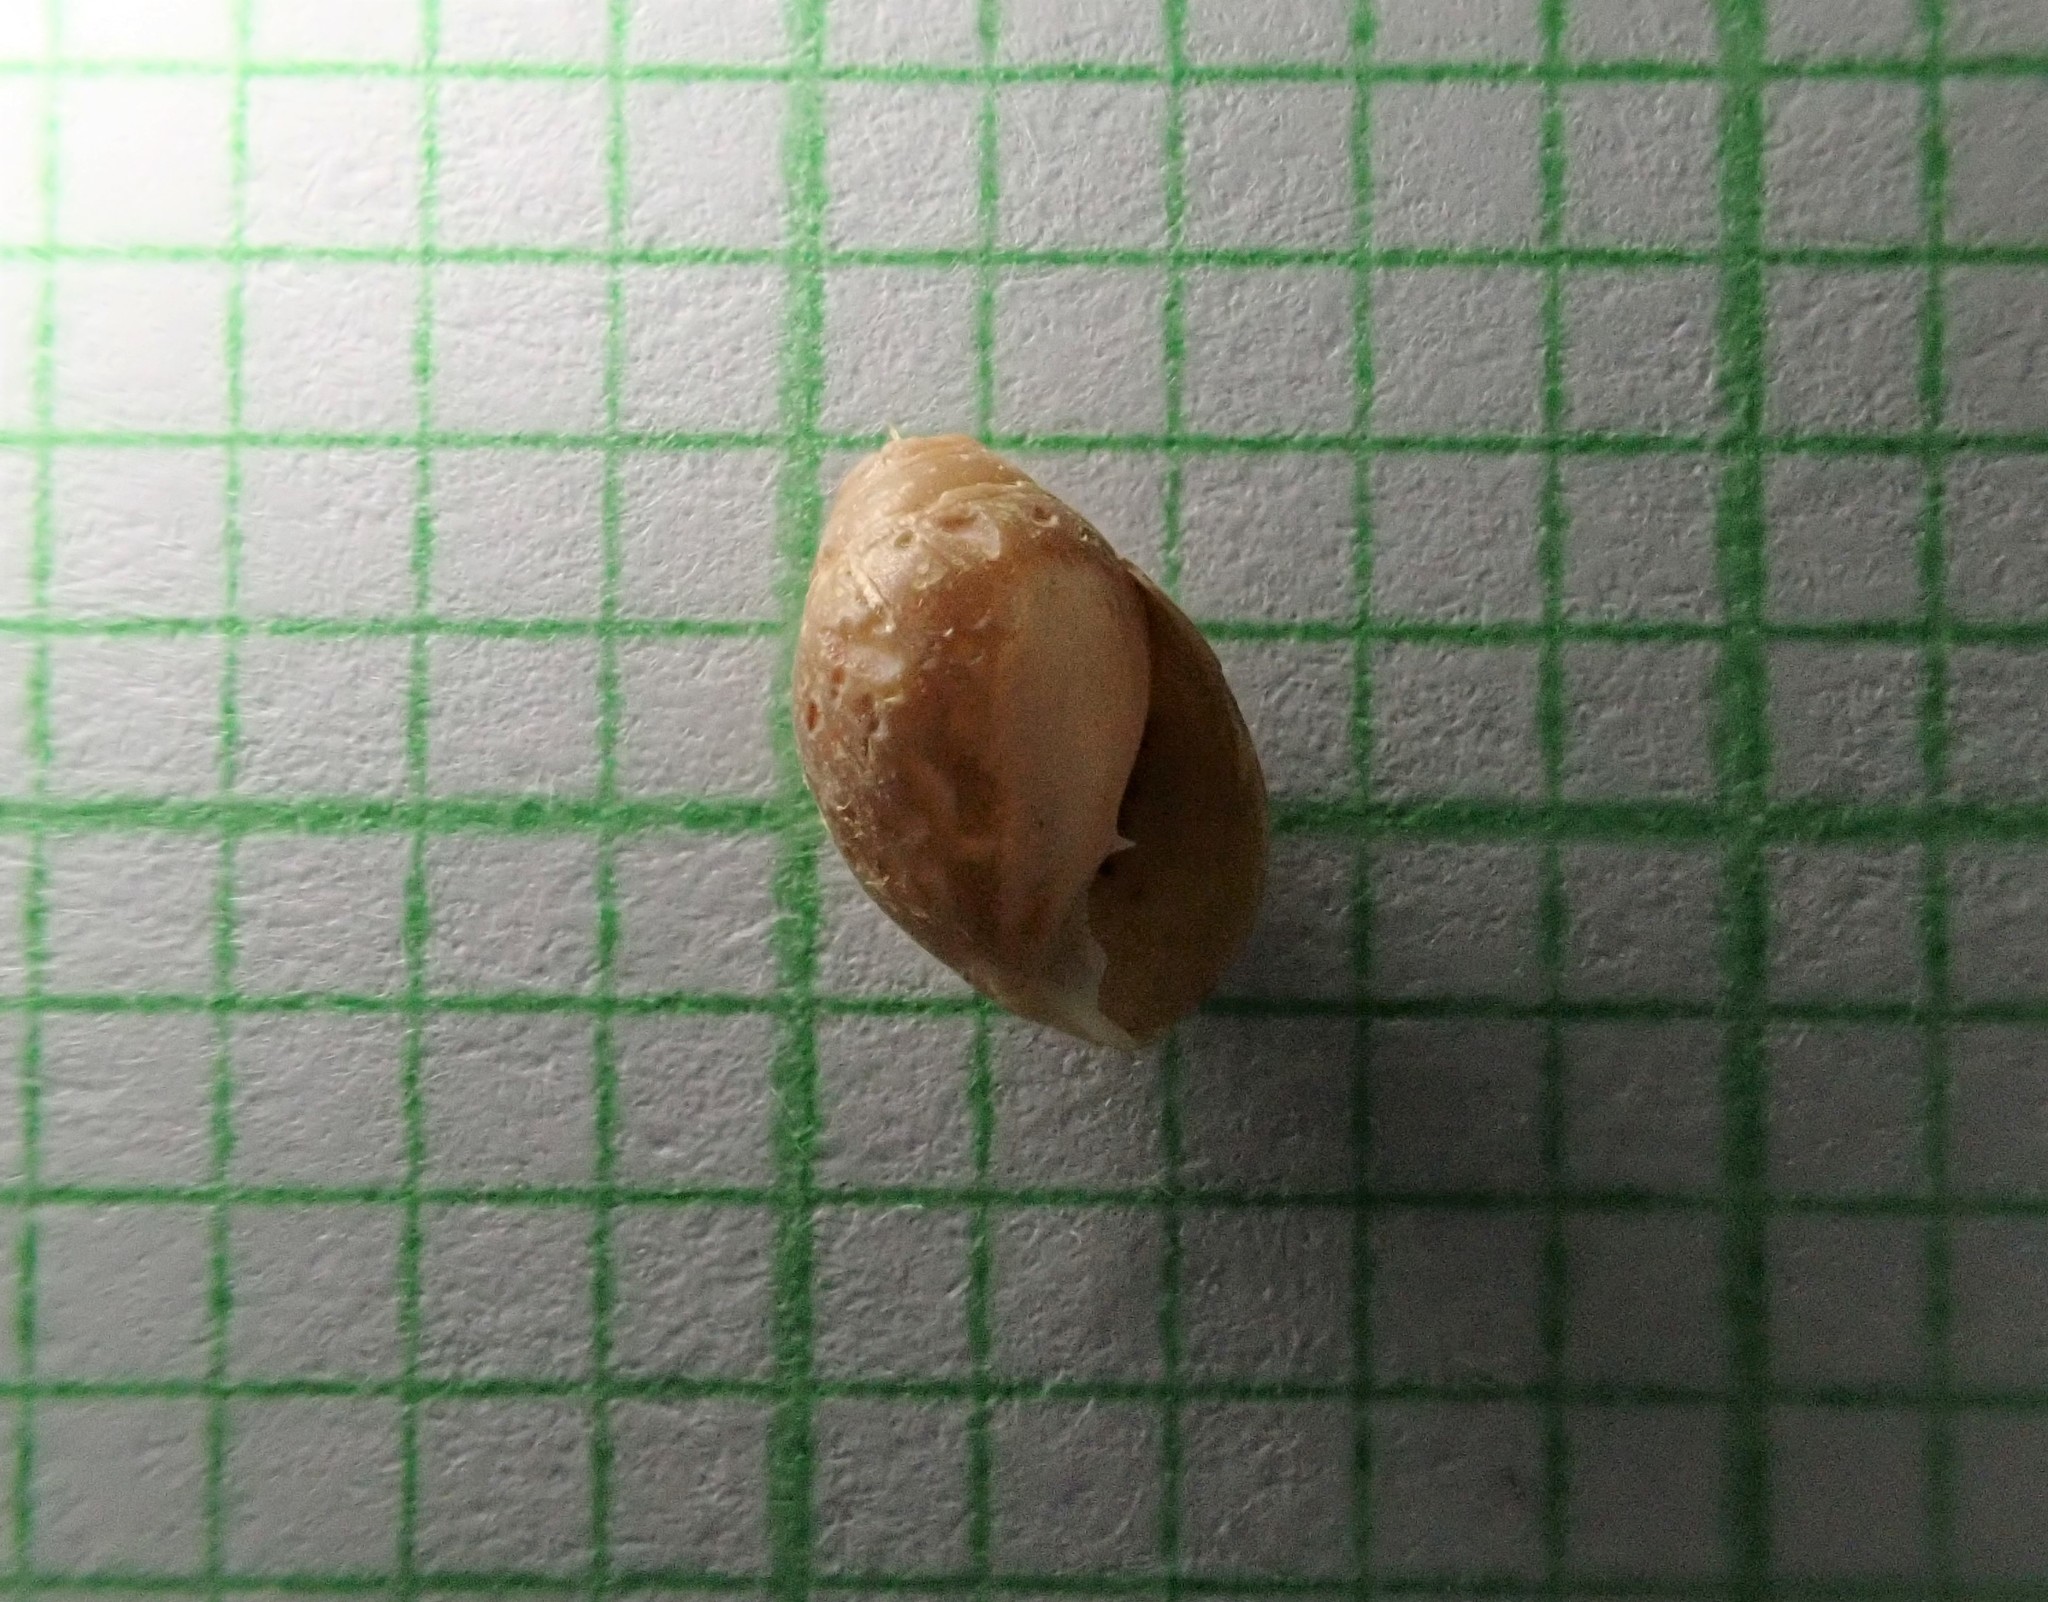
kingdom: Animalia
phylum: Mollusca
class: Gastropoda
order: Ellobiida
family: Ellobiidae
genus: Pleuroloba
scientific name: Pleuroloba costellaris
